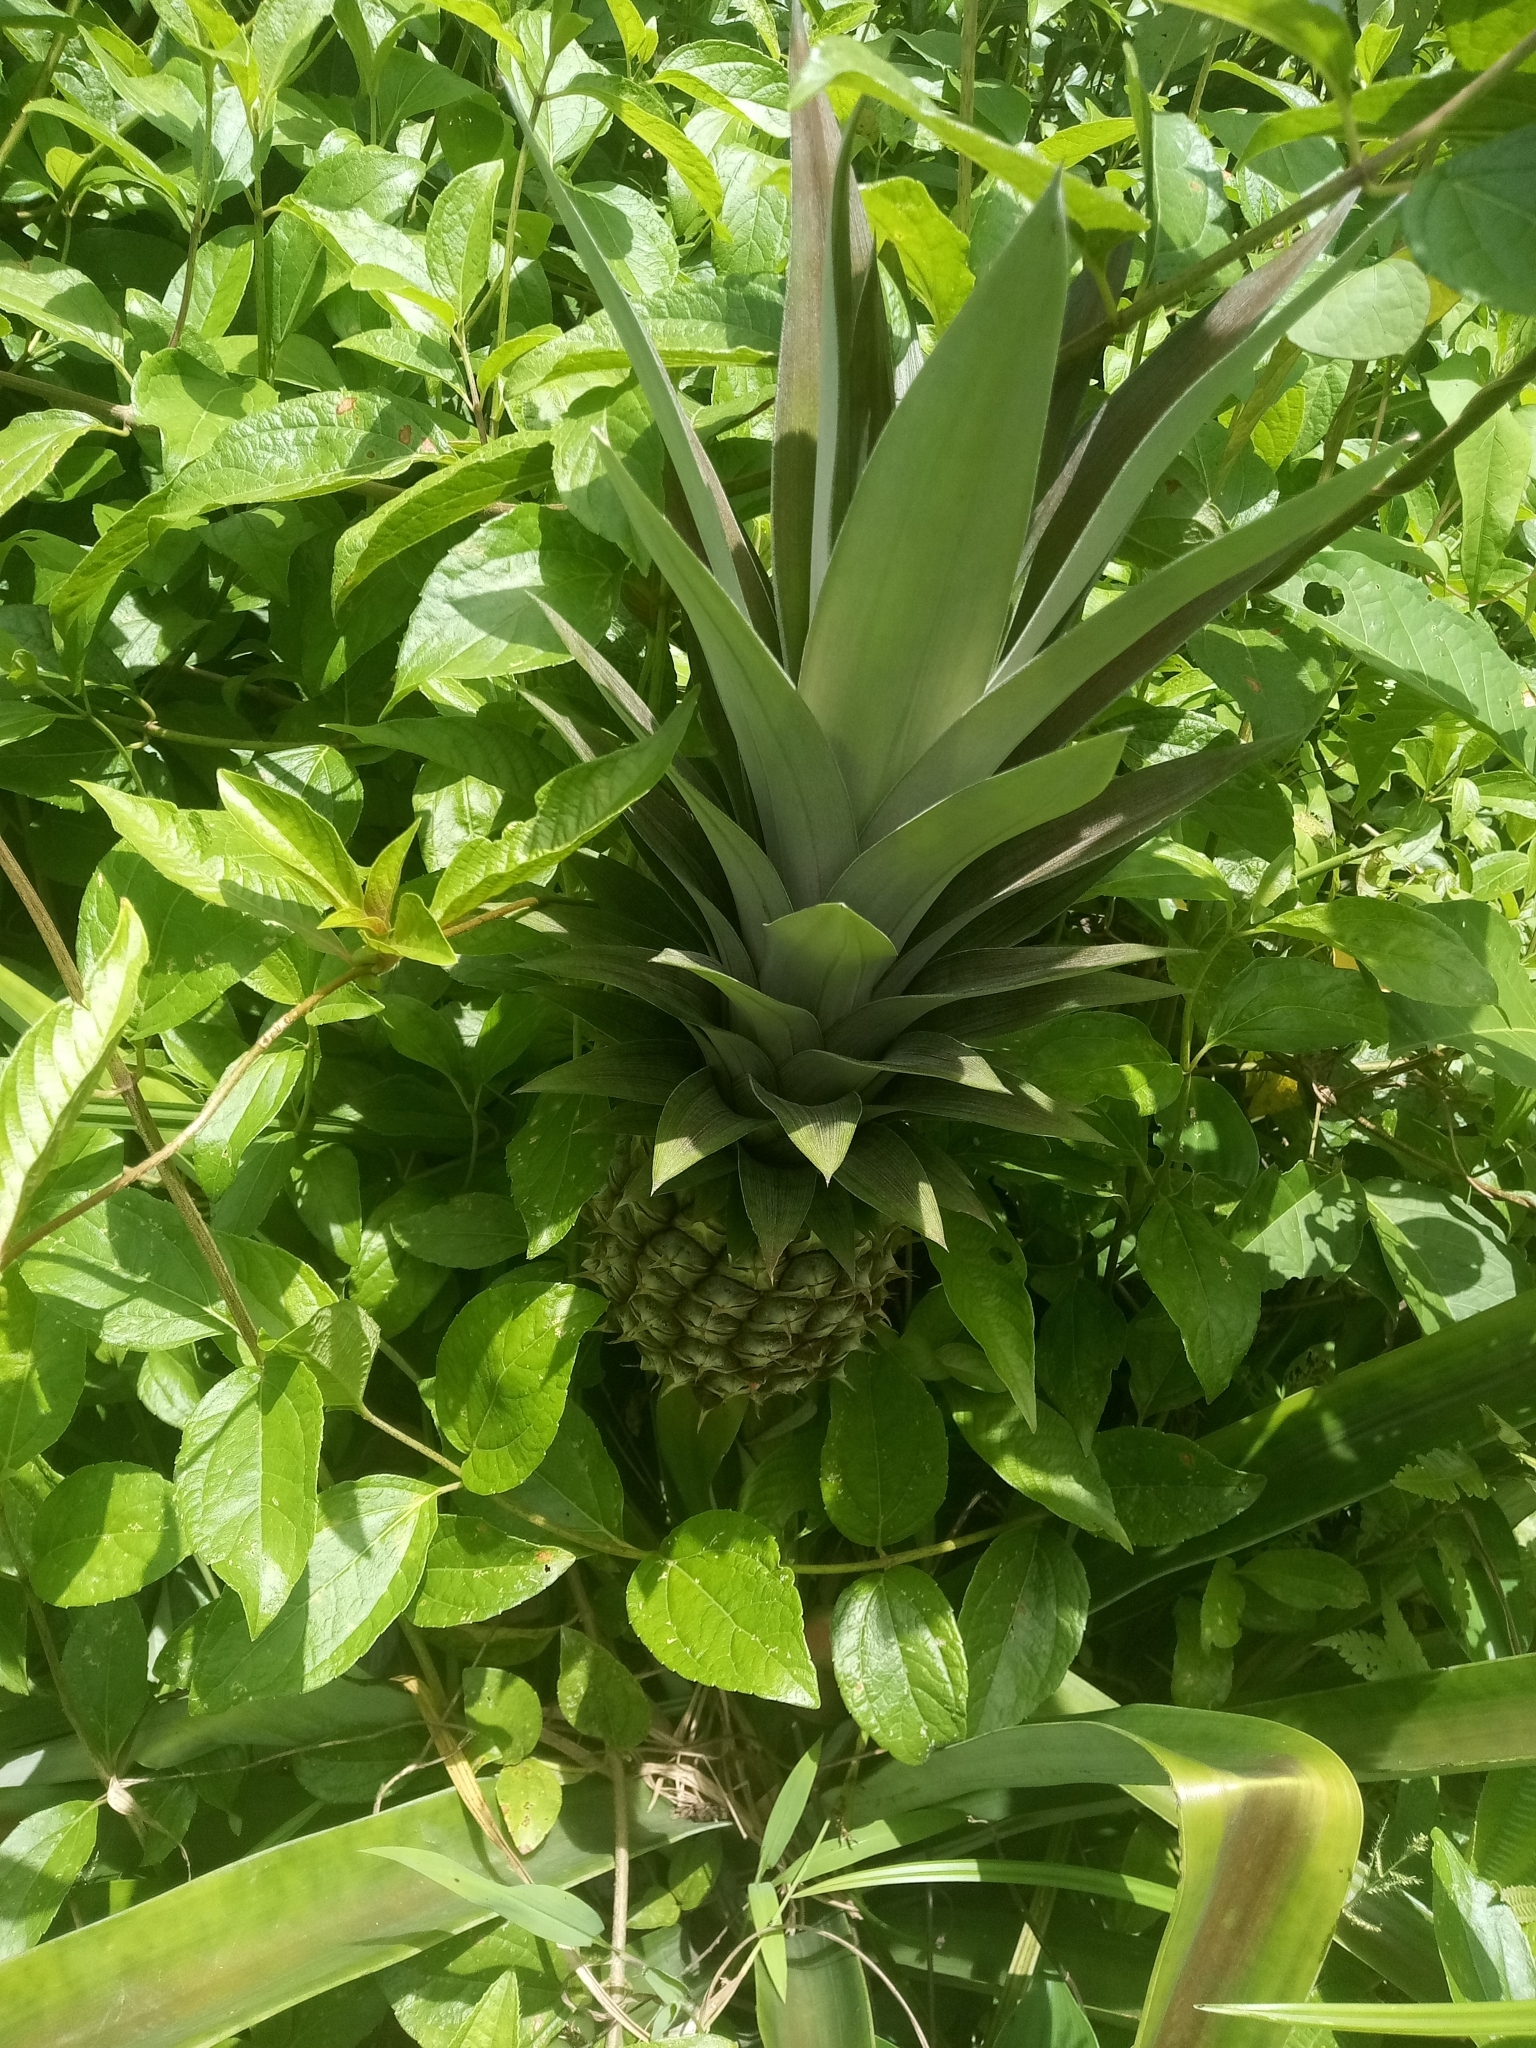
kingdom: Plantae
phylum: Tracheophyta
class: Liliopsida
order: Poales
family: Bromeliaceae
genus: Ananas
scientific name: Ananas comosus
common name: Pineapple
